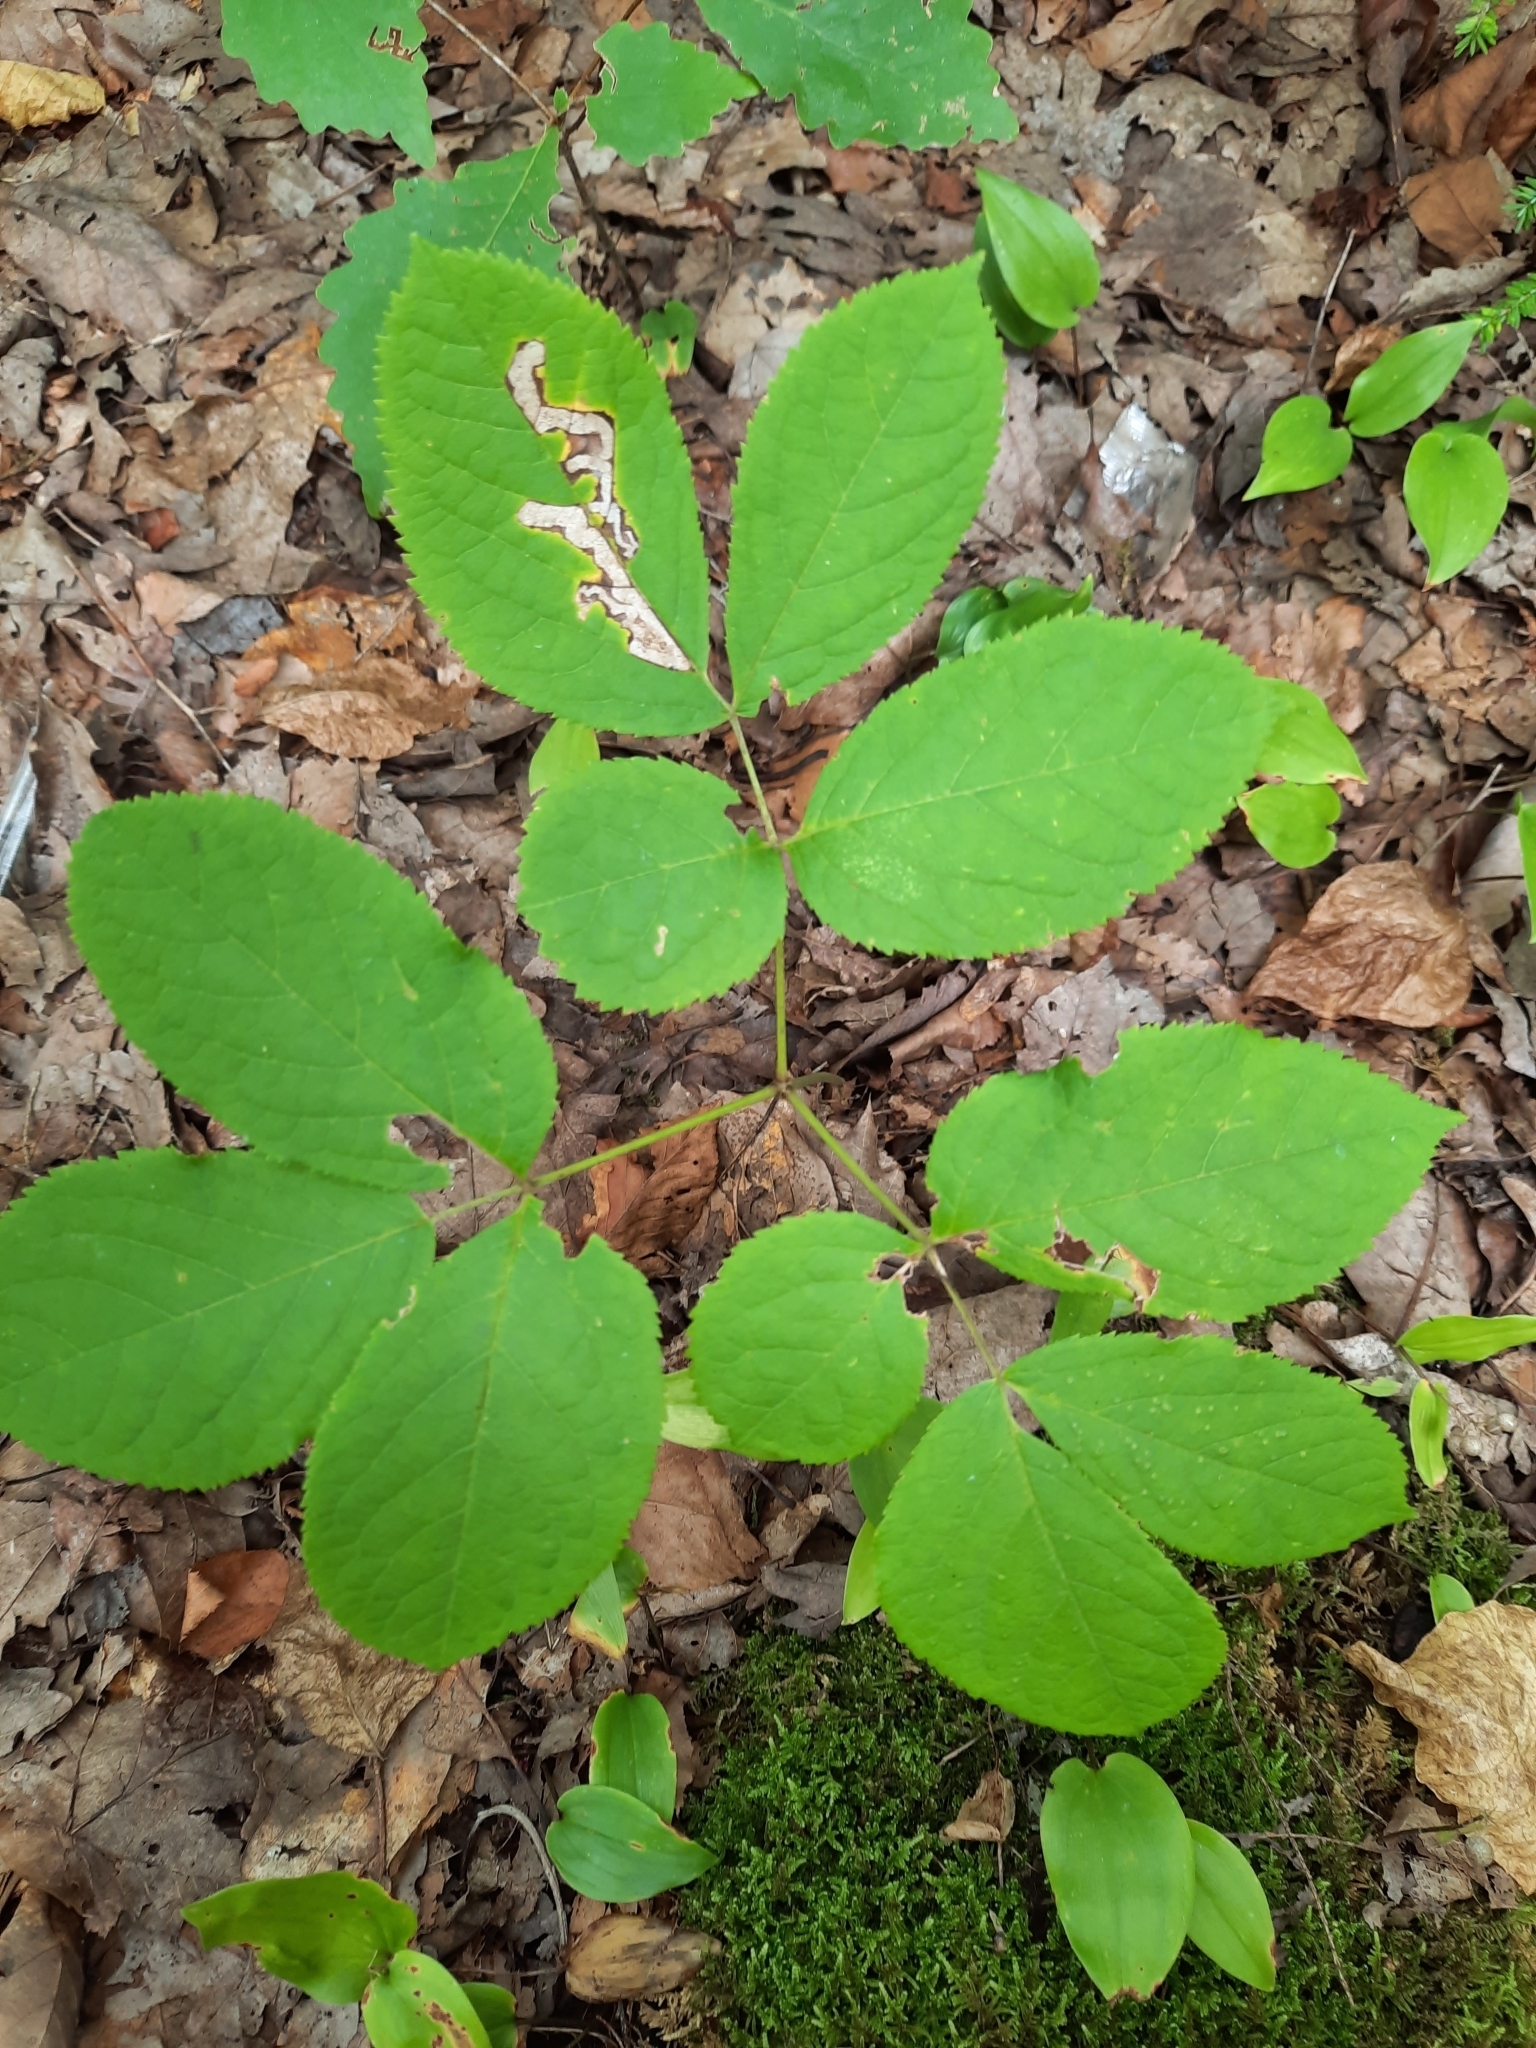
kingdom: Plantae
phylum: Tracheophyta
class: Magnoliopsida
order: Apiales
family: Araliaceae
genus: Aralia
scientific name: Aralia nudicaulis
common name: Wild sarsaparilla
